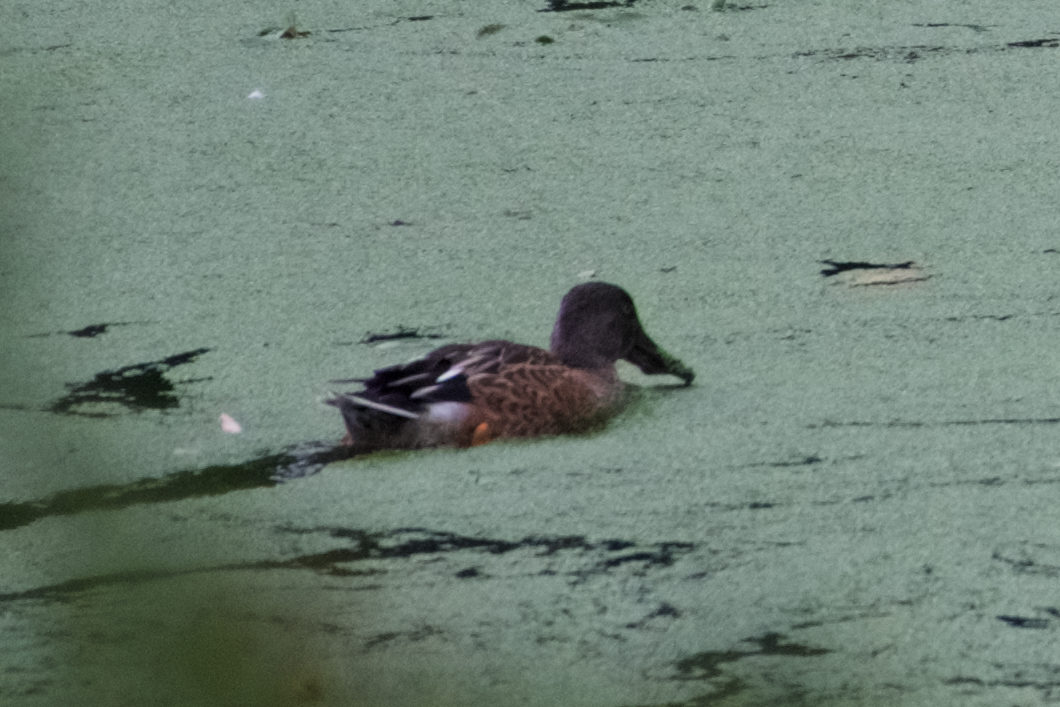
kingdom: Animalia
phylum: Chordata
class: Aves
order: Anseriformes
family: Anatidae
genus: Spatula
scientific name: Spatula clypeata
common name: Northern shoveler
